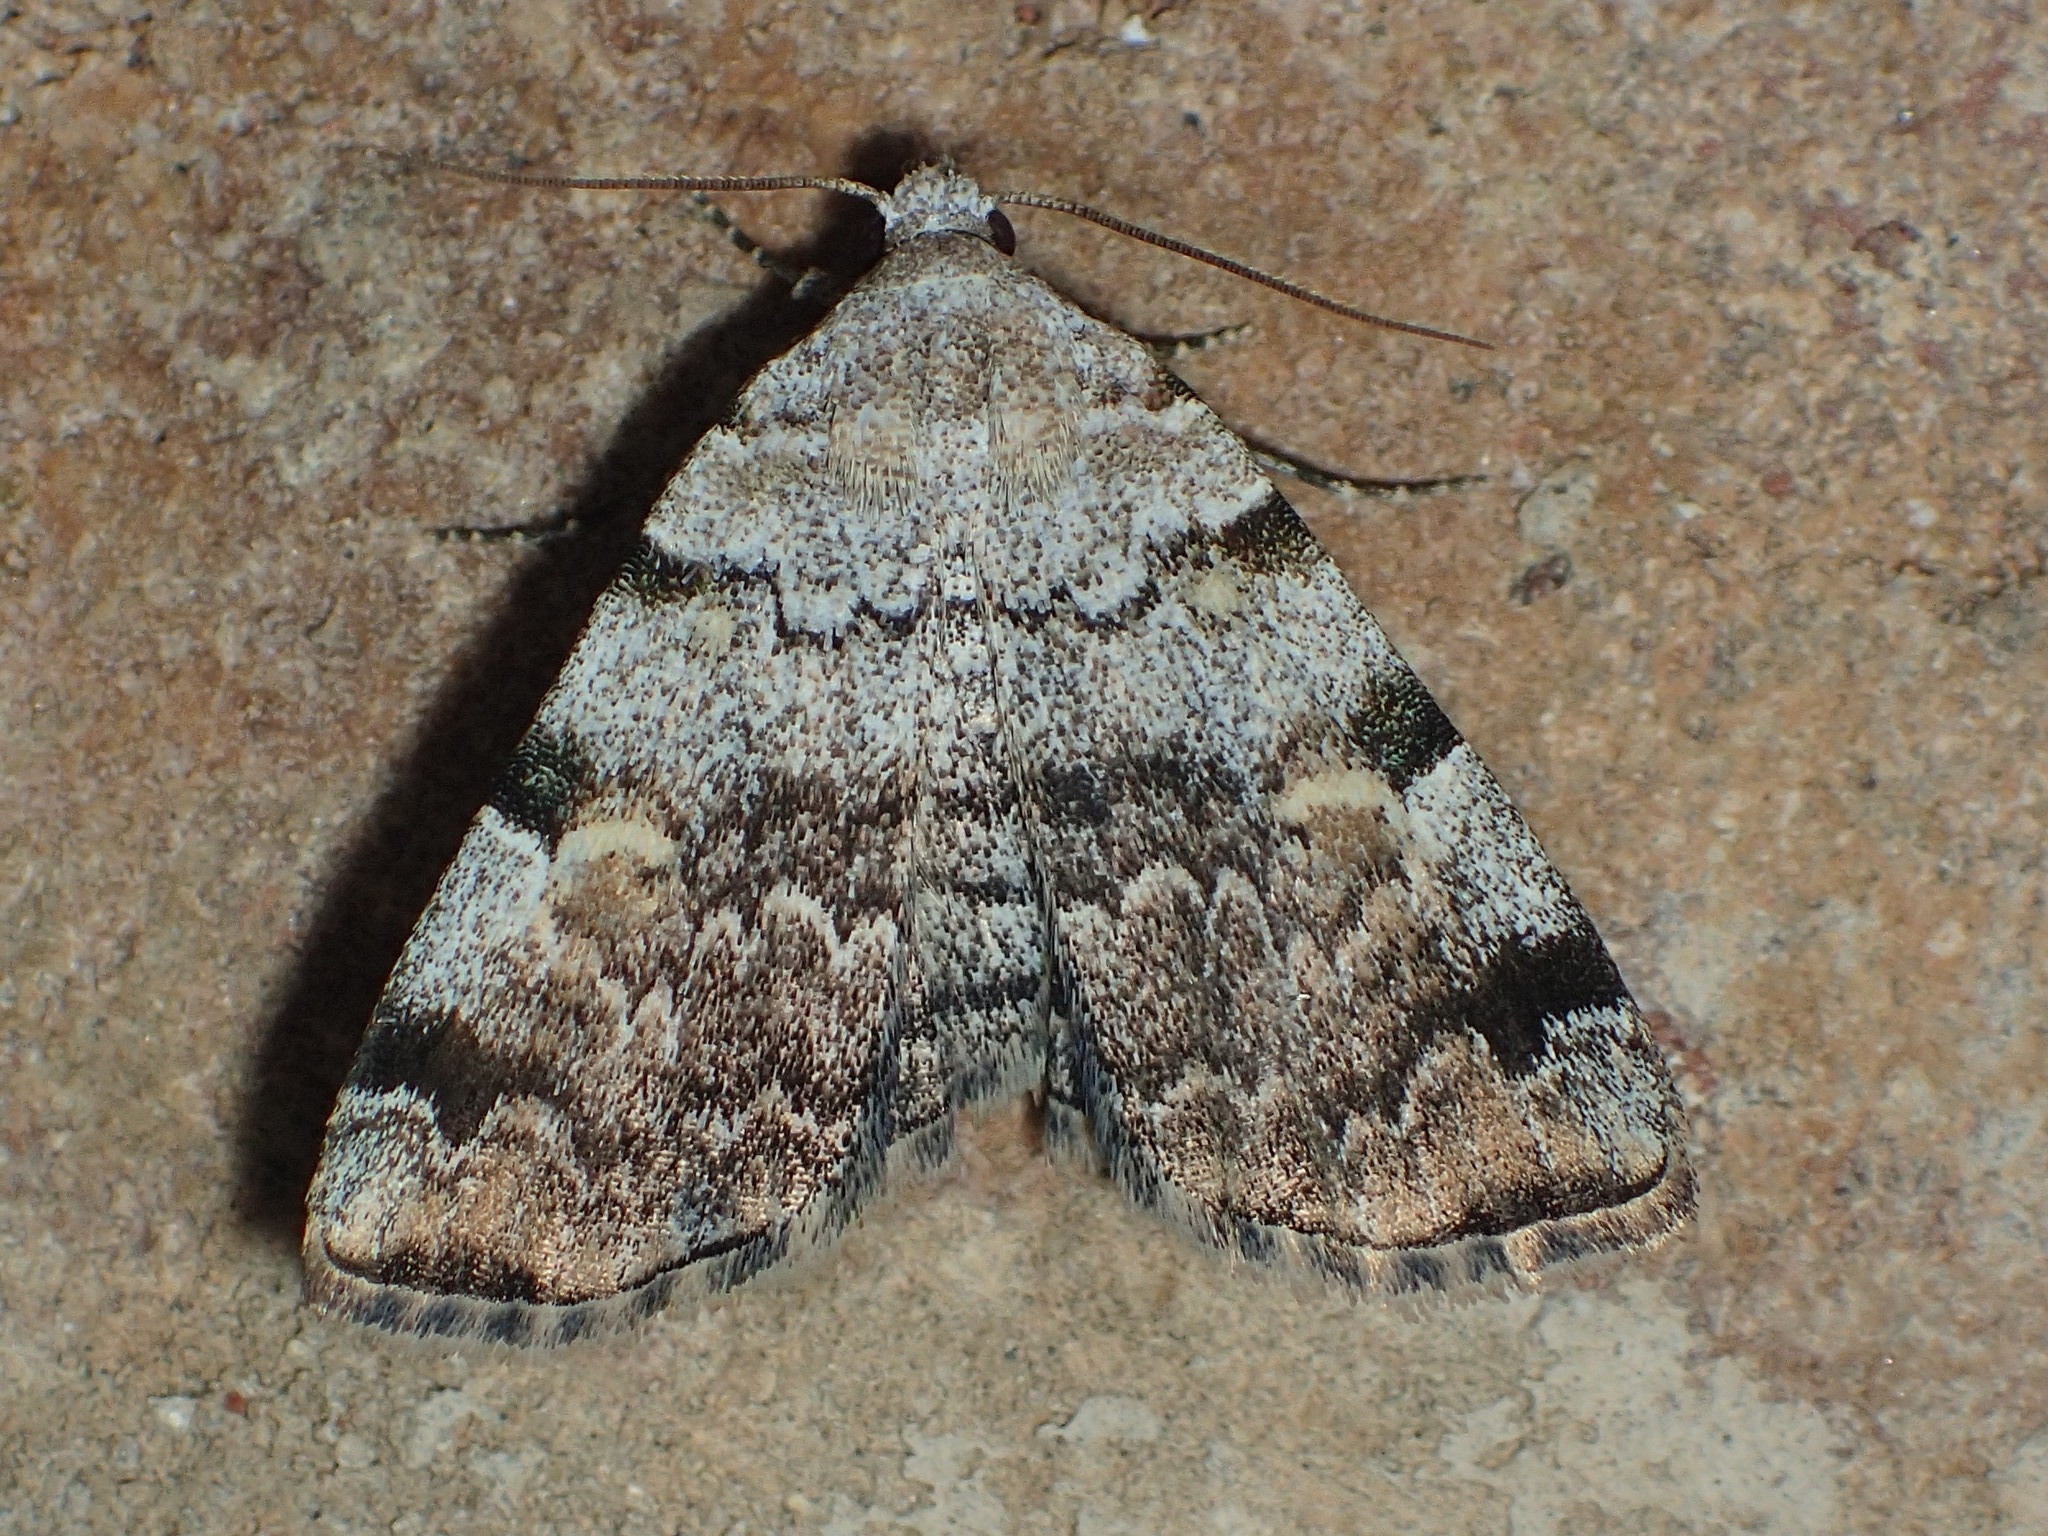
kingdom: Animalia
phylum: Arthropoda
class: Insecta
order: Lepidoptera
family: Erebidae
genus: Idia
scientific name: Idia americalis
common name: American idia moth
